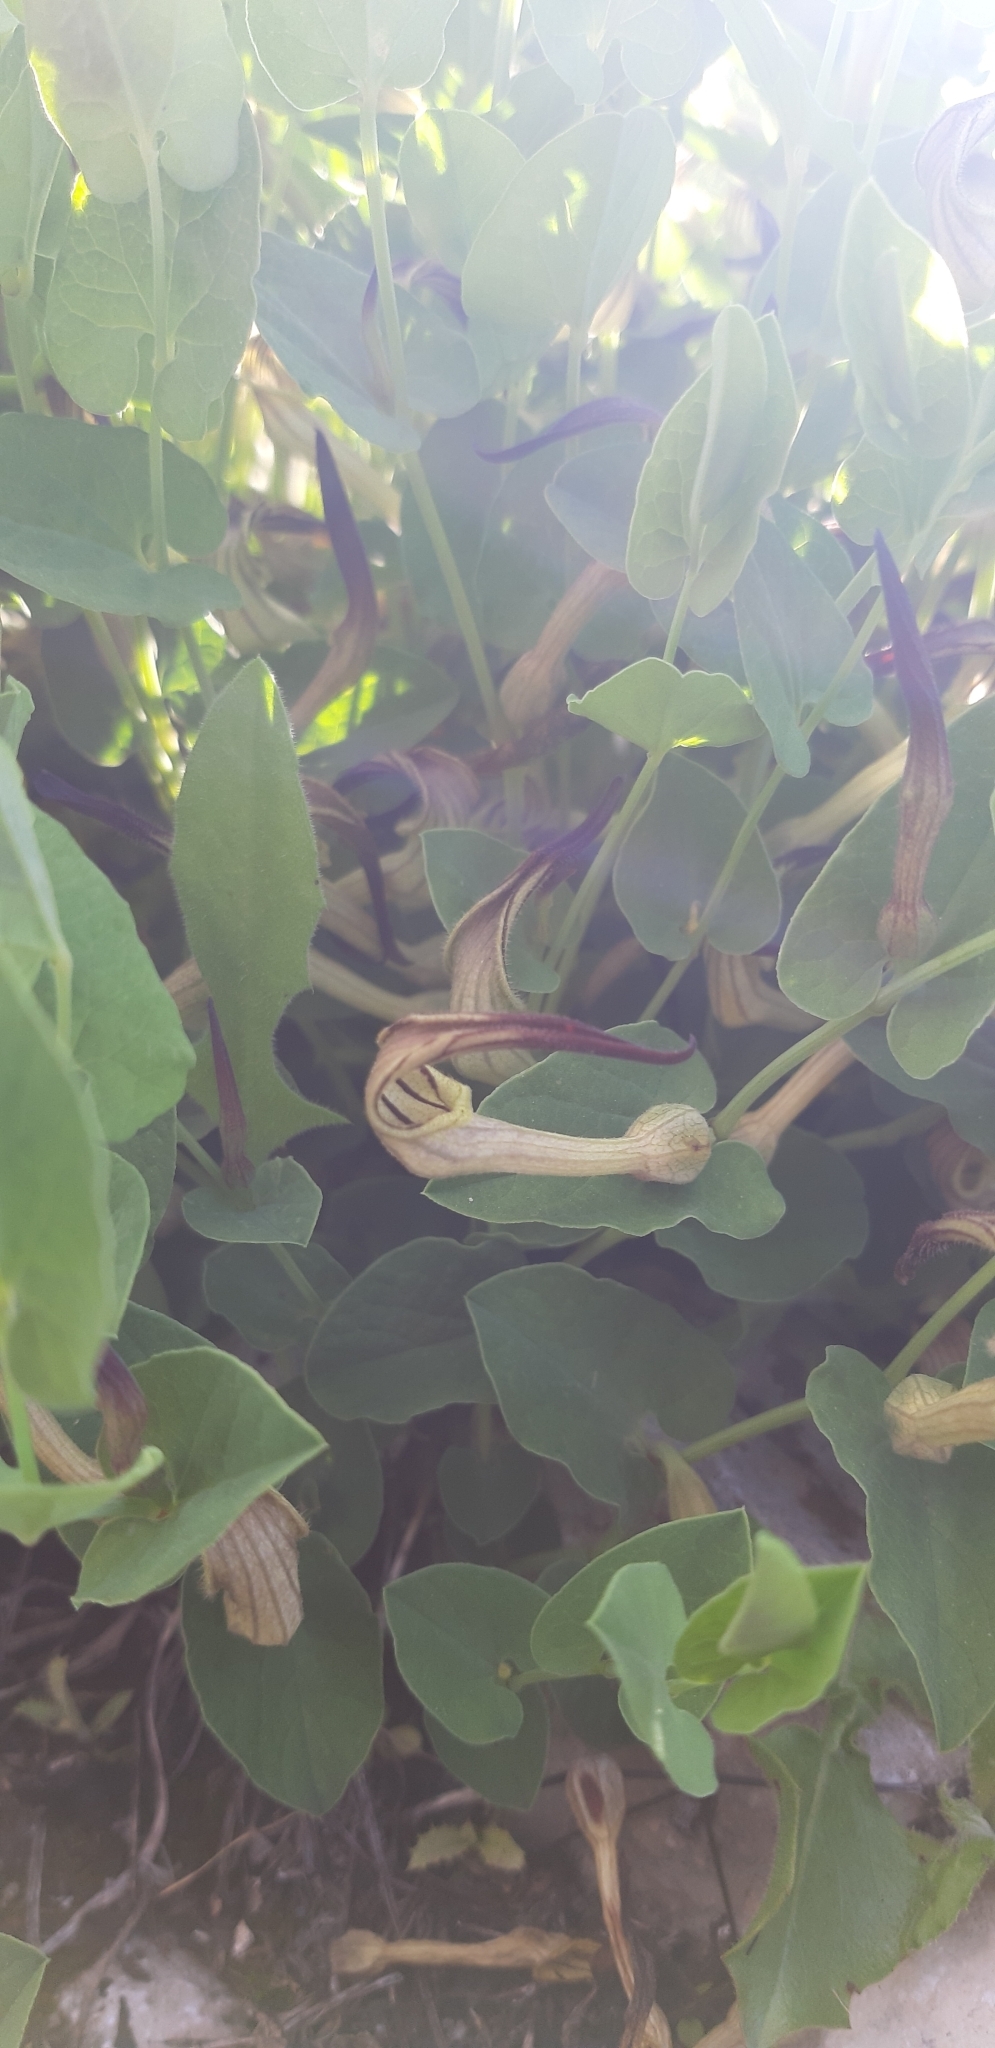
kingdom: Plantae
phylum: Tracheophyta
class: Magnoliopsida
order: Piperales
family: Aristolochiaceae
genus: Aristolochia
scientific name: Aristolochia clusii
